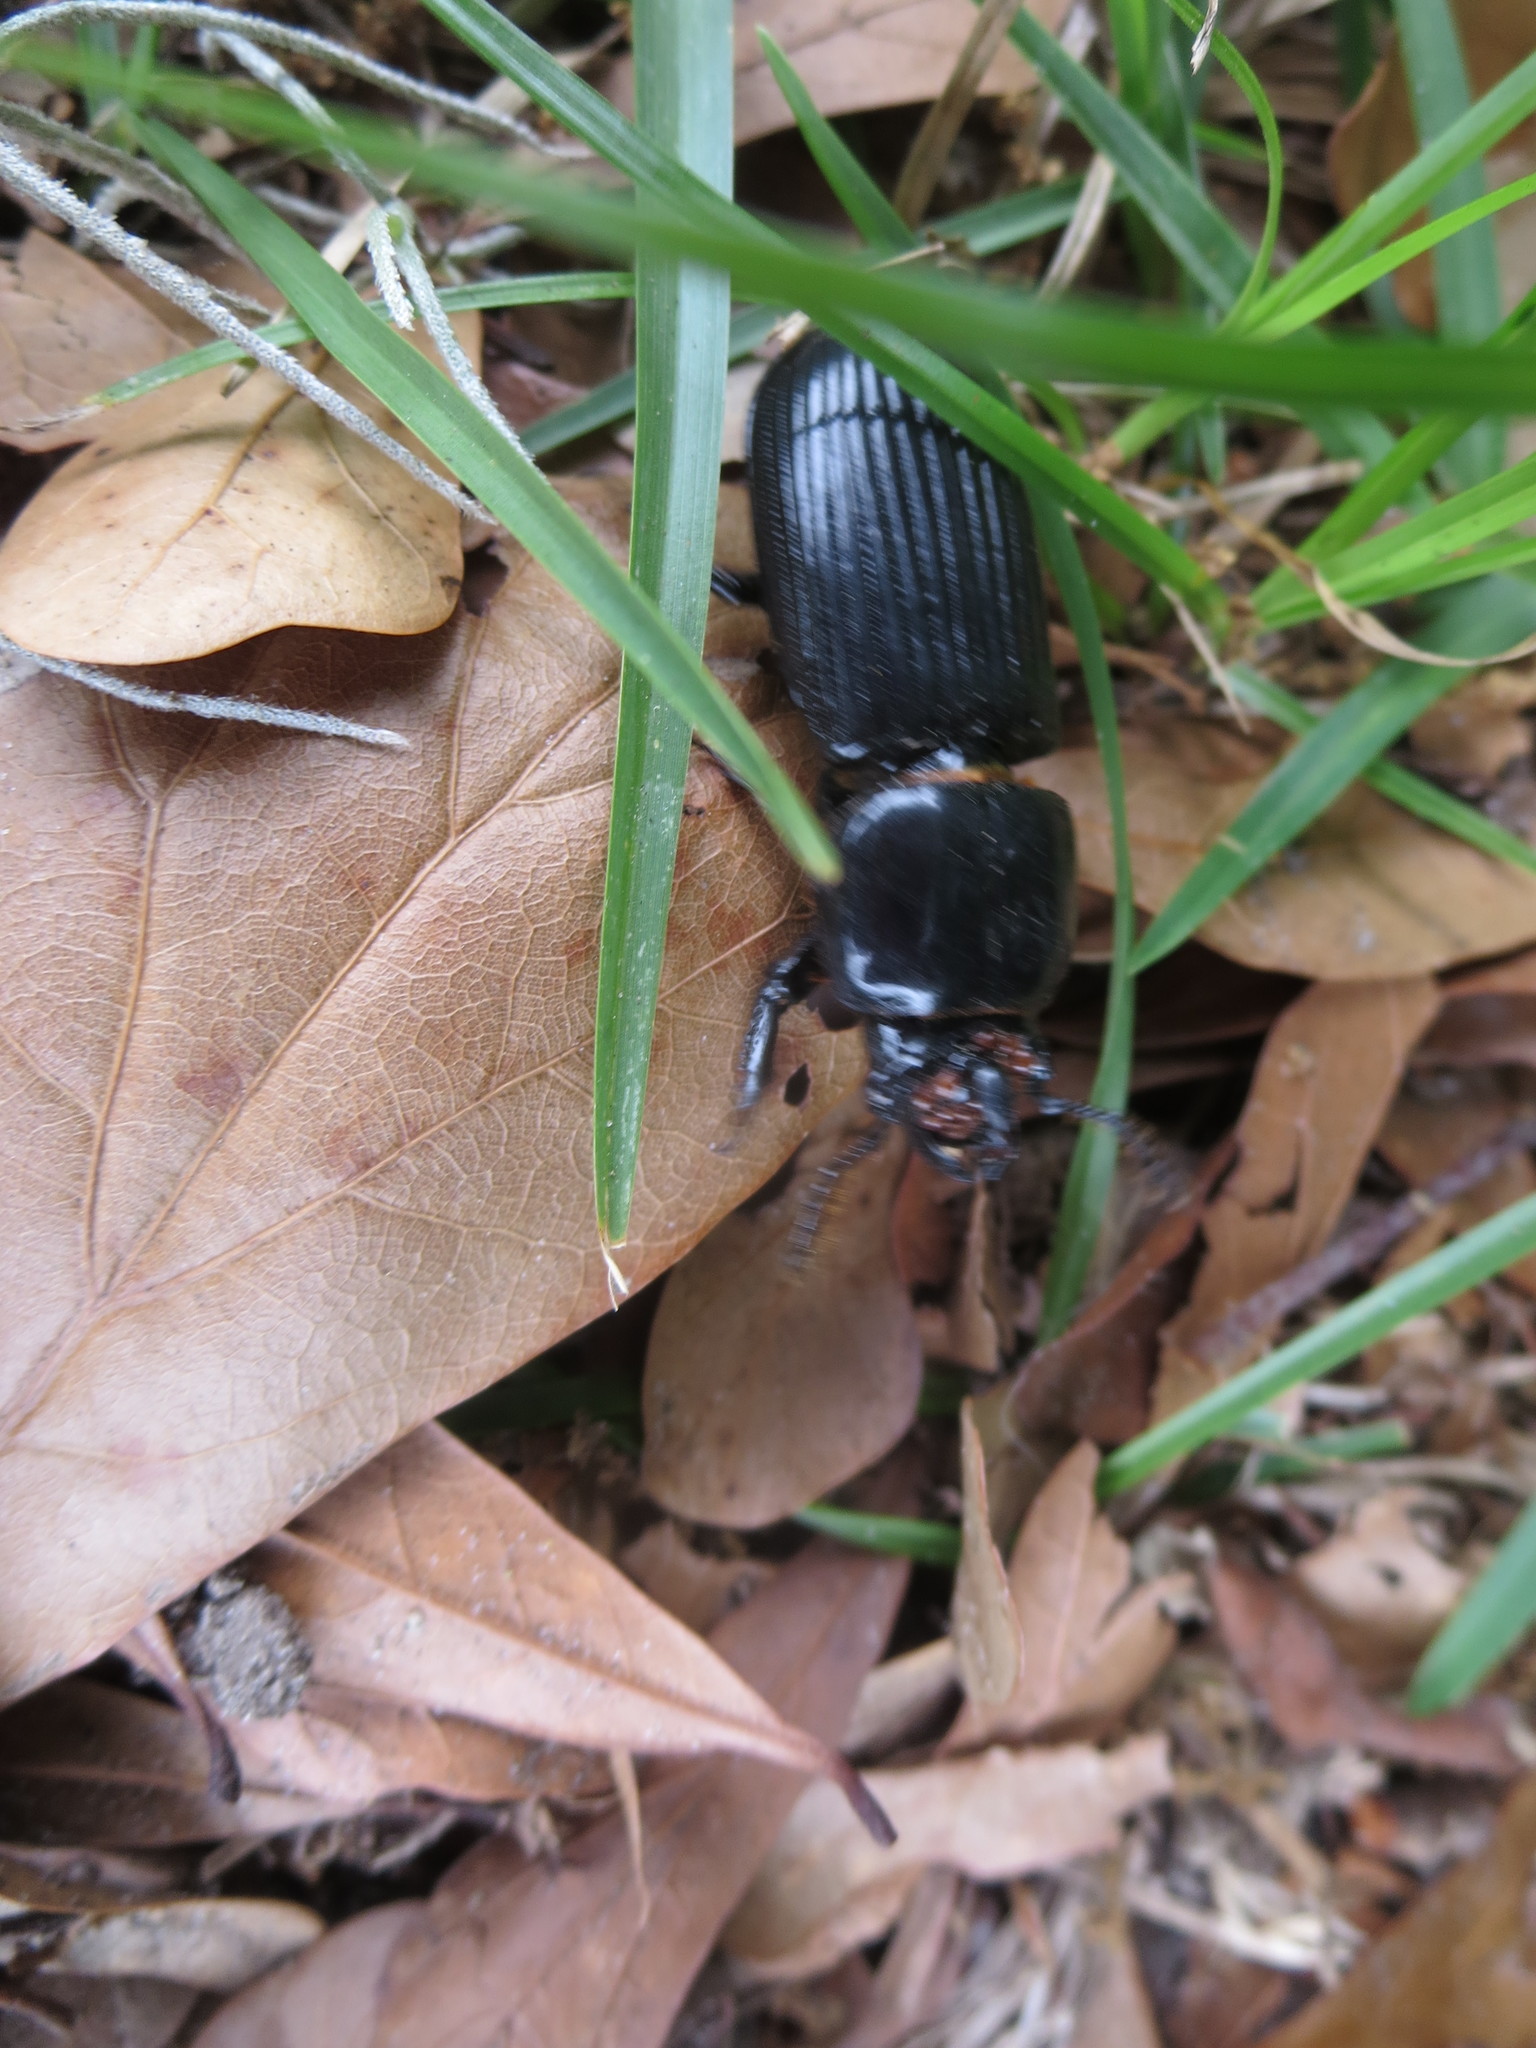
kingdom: Animalia
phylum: Arthropoda
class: Insecta
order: Coleoptera
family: Passalidae
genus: Odontotaenius
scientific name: Odontotaenius disjunctus
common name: Patent leather beetle
